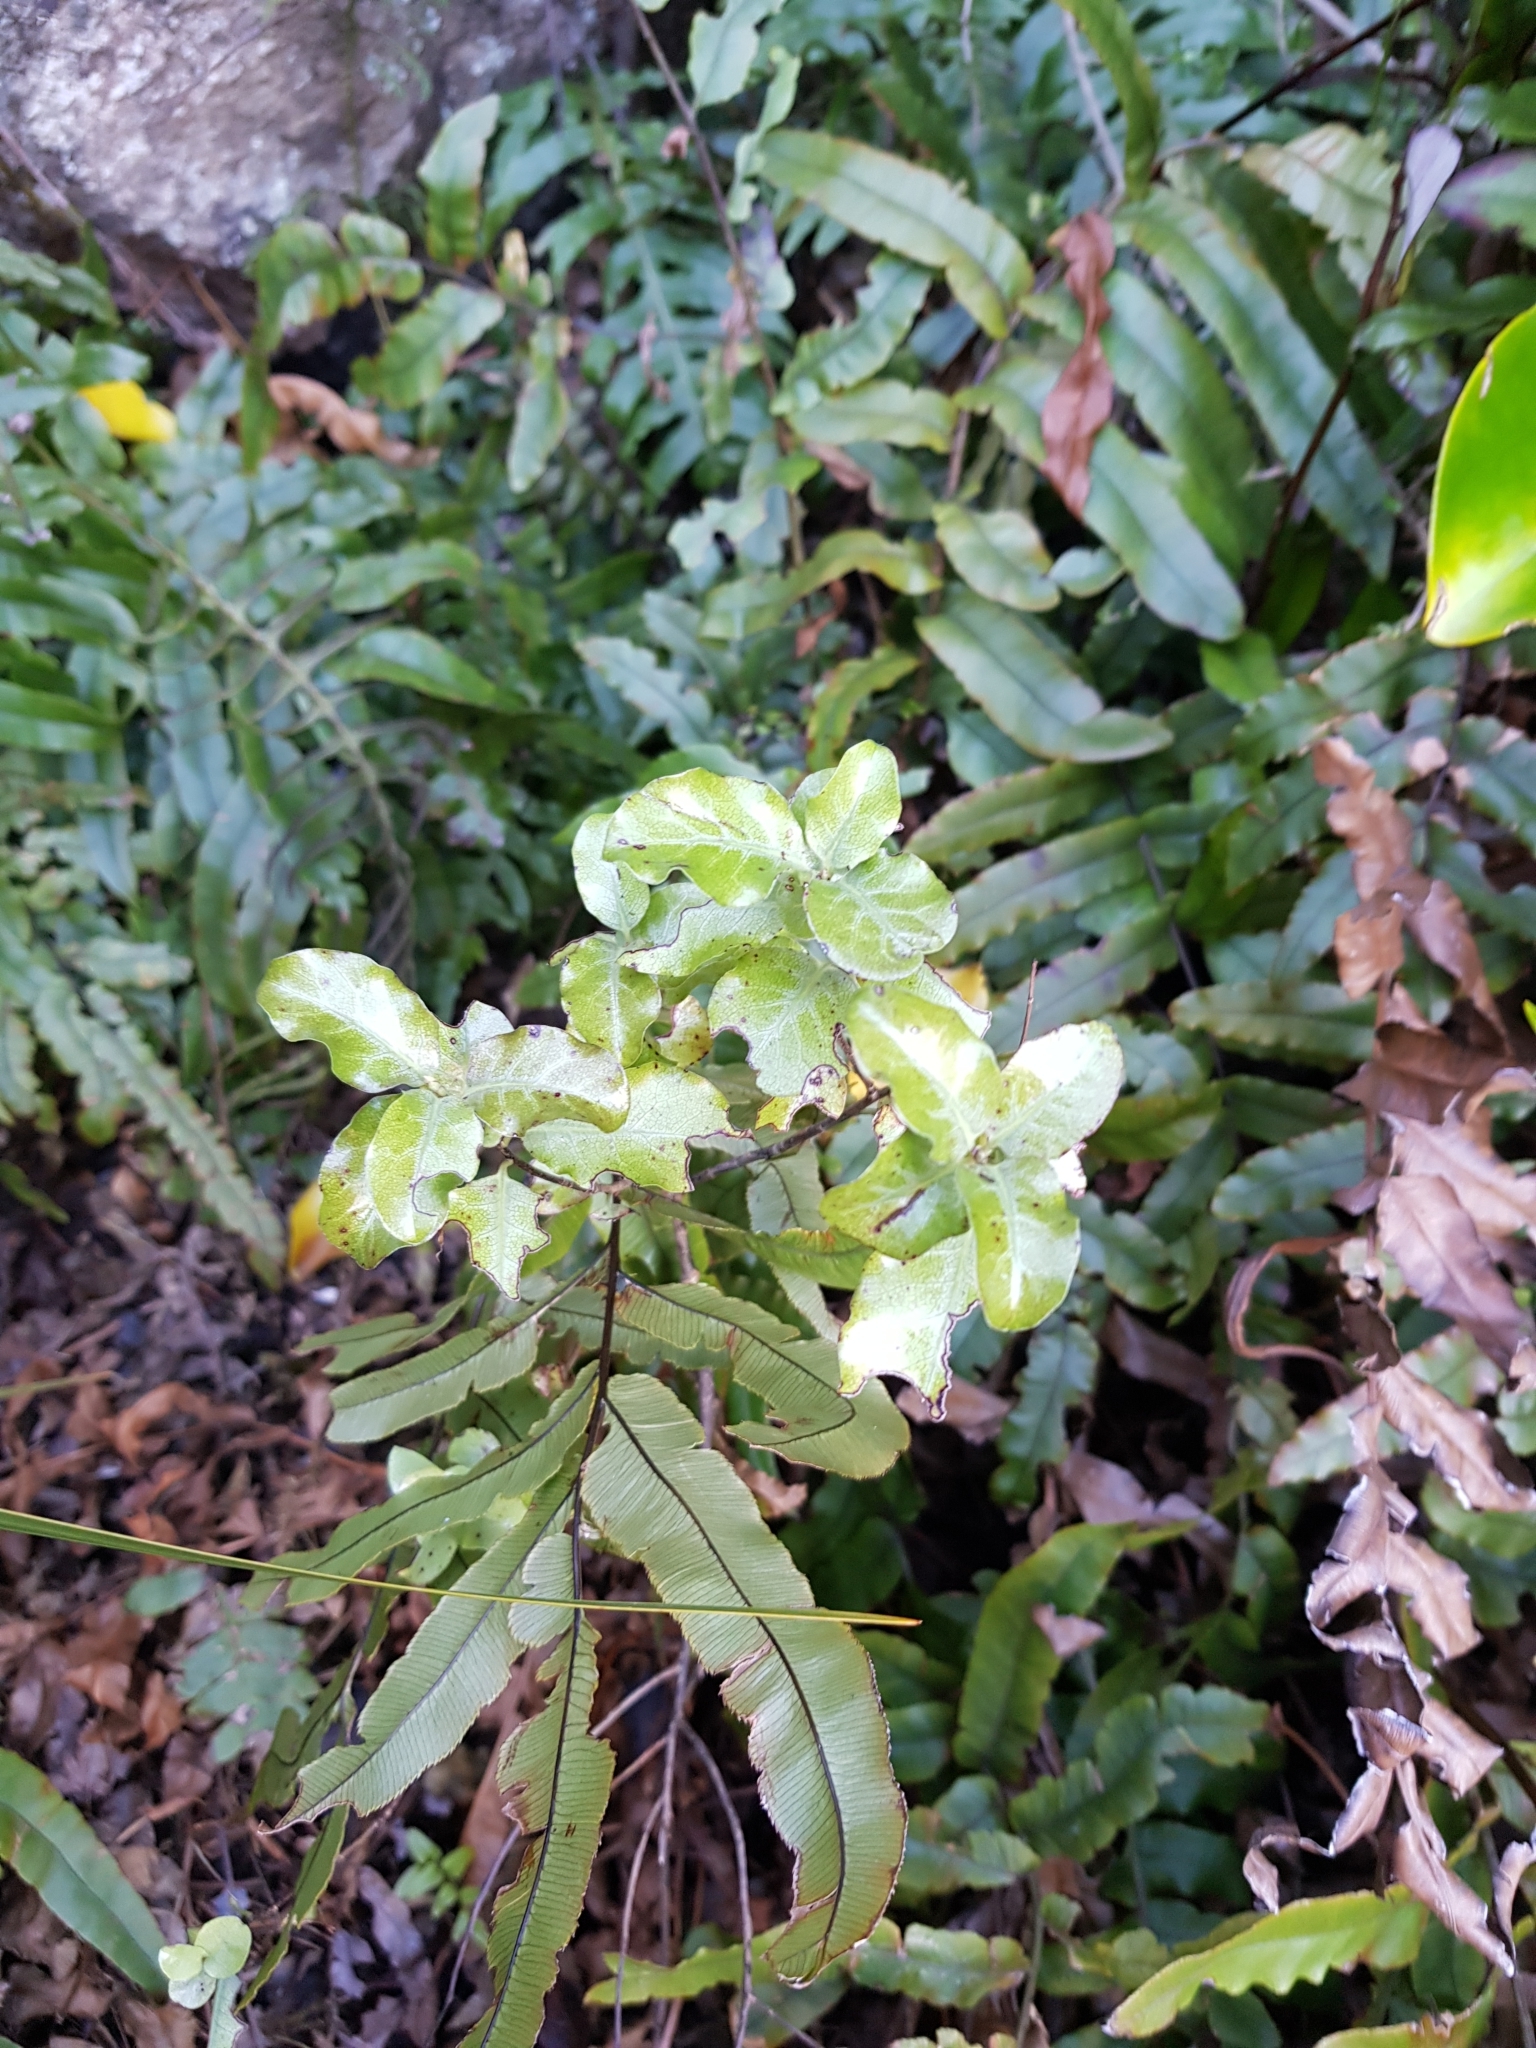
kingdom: Plantae
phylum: Tracheophyta
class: Magnoliopsida
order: Apiales
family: Pittosporaceae
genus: Pittosporum
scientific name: Pittosporum tenuifolium
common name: Kohuhu
